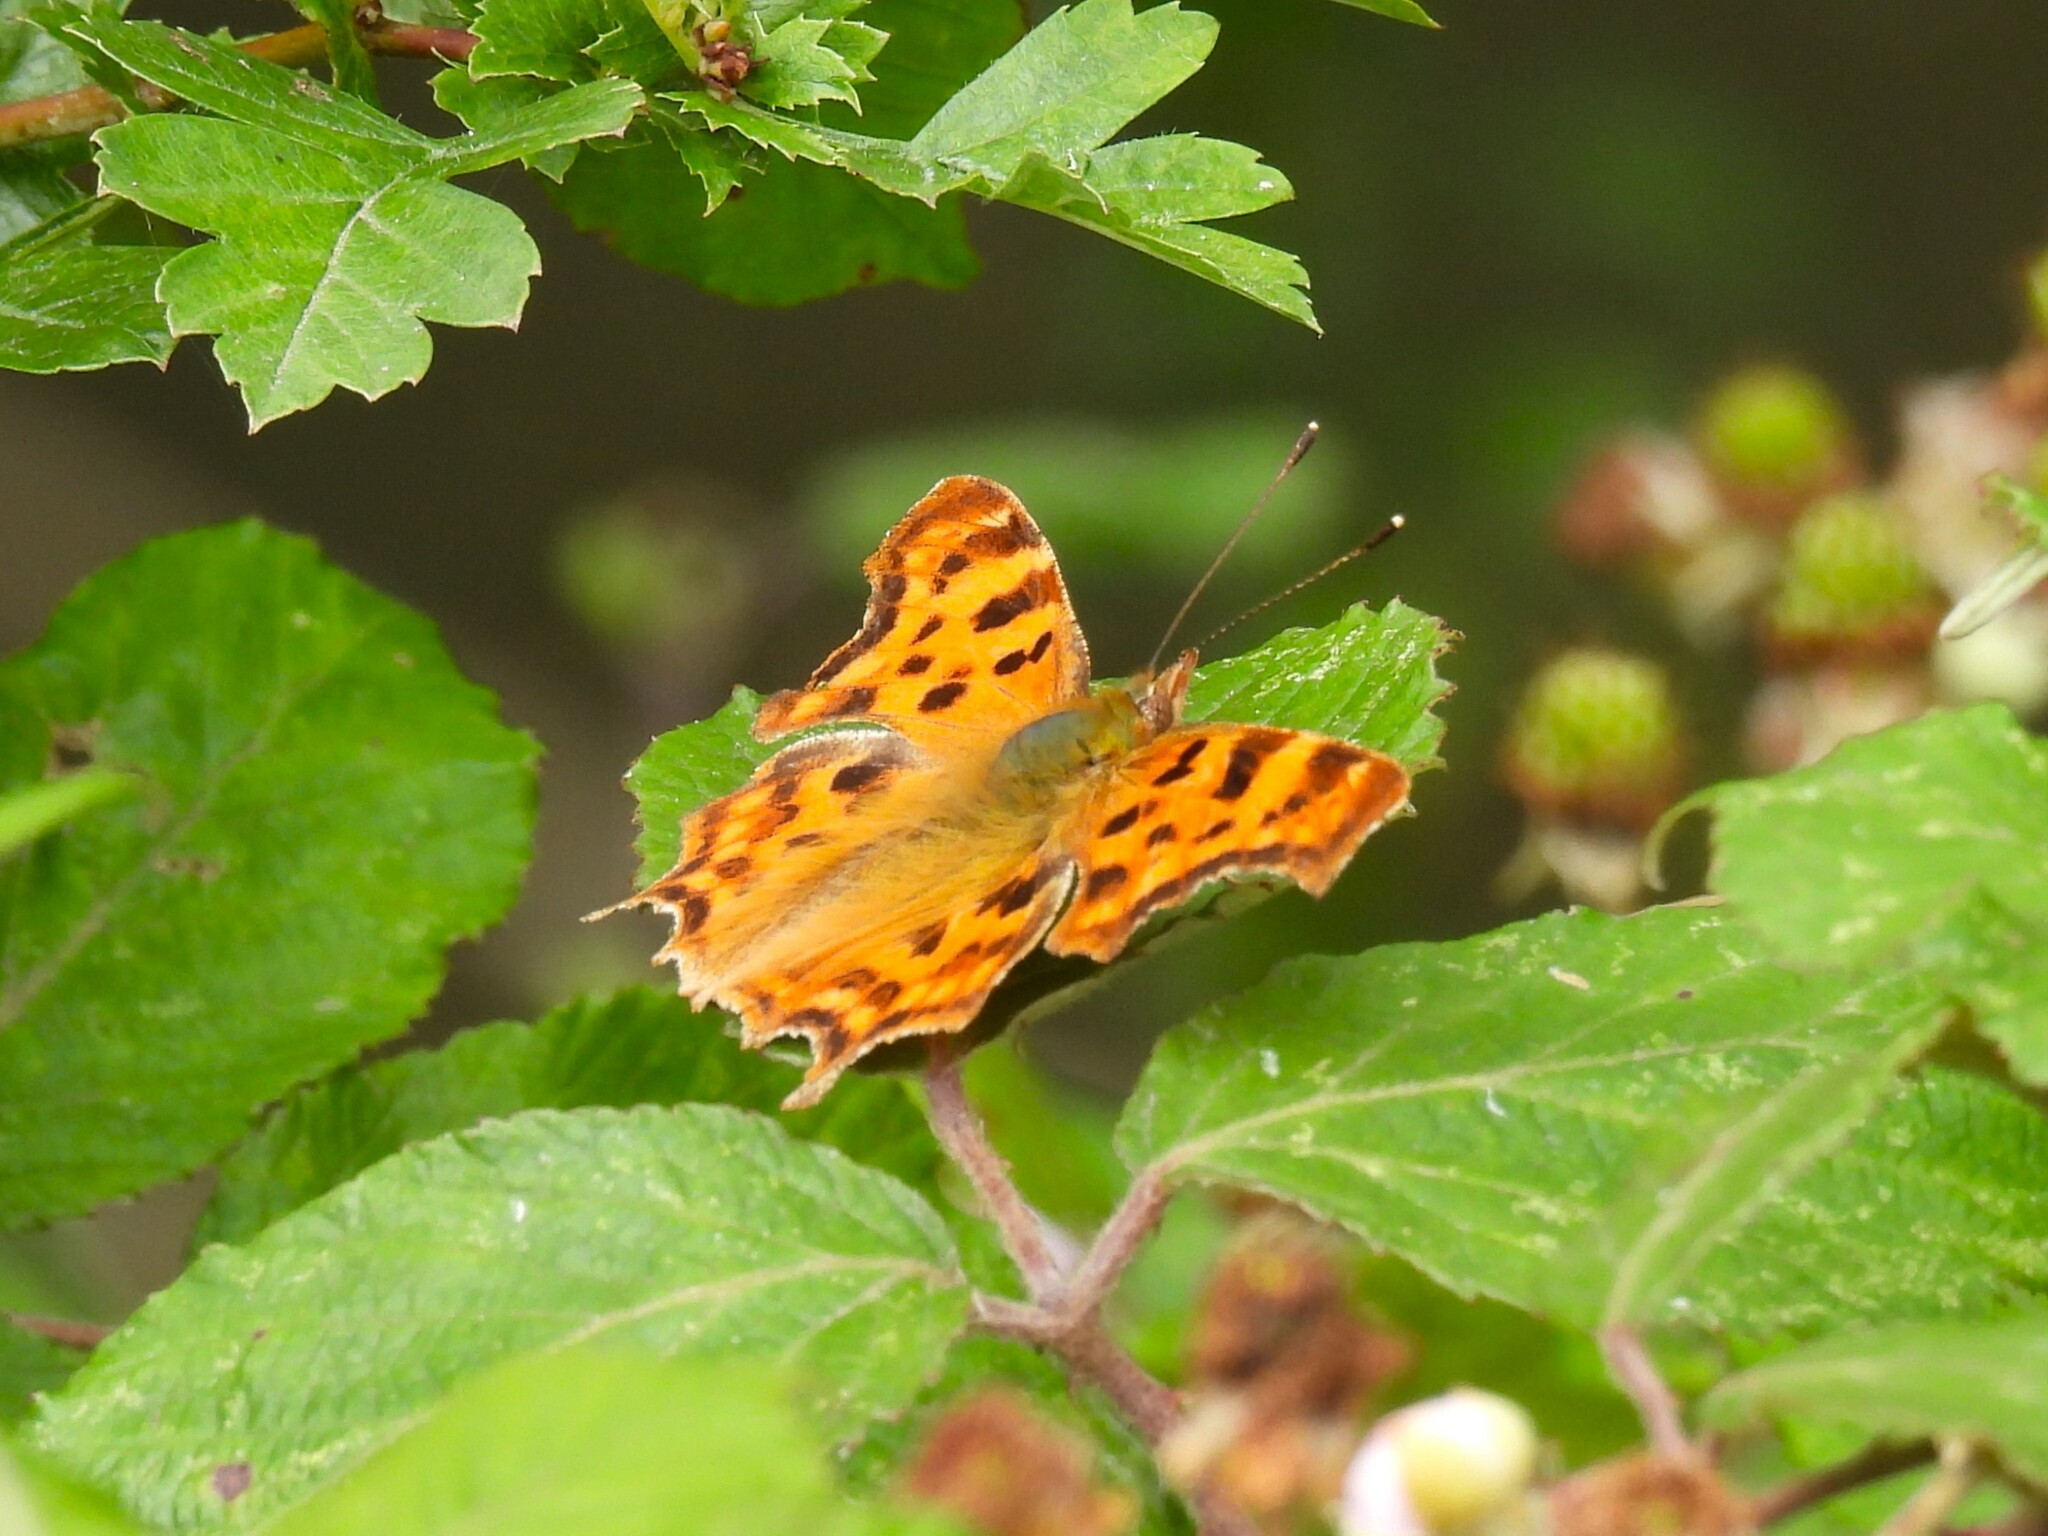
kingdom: Animalia
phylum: Arthropoda
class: Insecta
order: Lepidoptera
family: Nymphalidae
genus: Polygonia
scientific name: Polygonia c-album
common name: Comma
